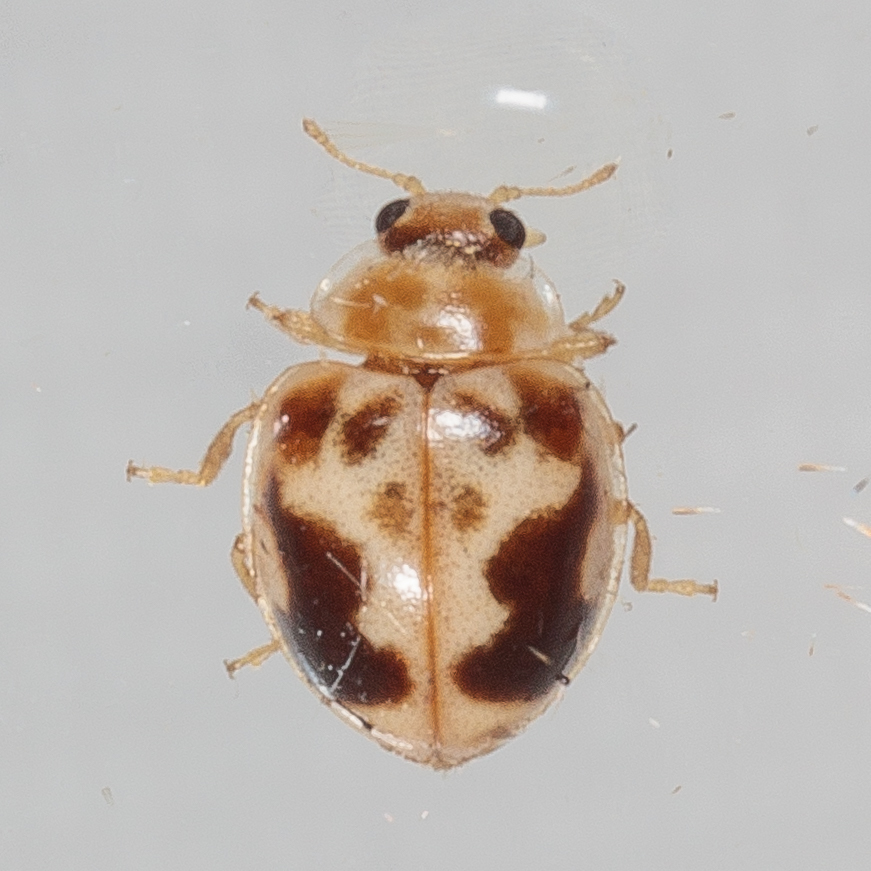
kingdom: Animalia
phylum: Arthropoda
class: Insecta
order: Coleoptera
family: Coccinellidae
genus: Psyllobora
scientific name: Psyllobora renifer
